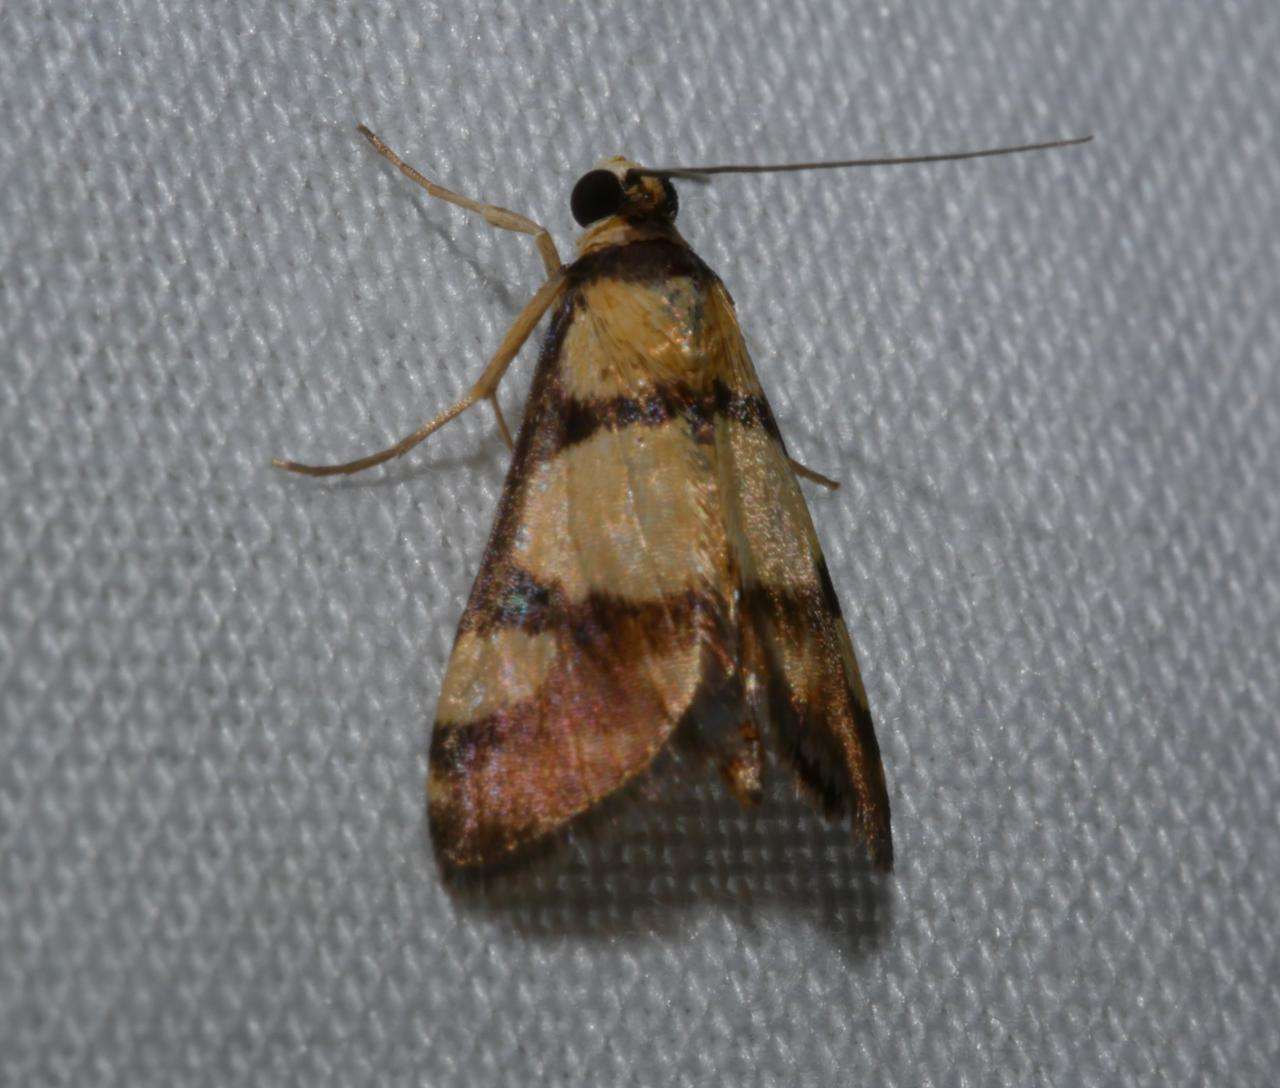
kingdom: Animalia
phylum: Arthropoda
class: Insecta
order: Lepidoptera
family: Crambidae
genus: Deuterarcha
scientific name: Deuterarcha xanthomela
